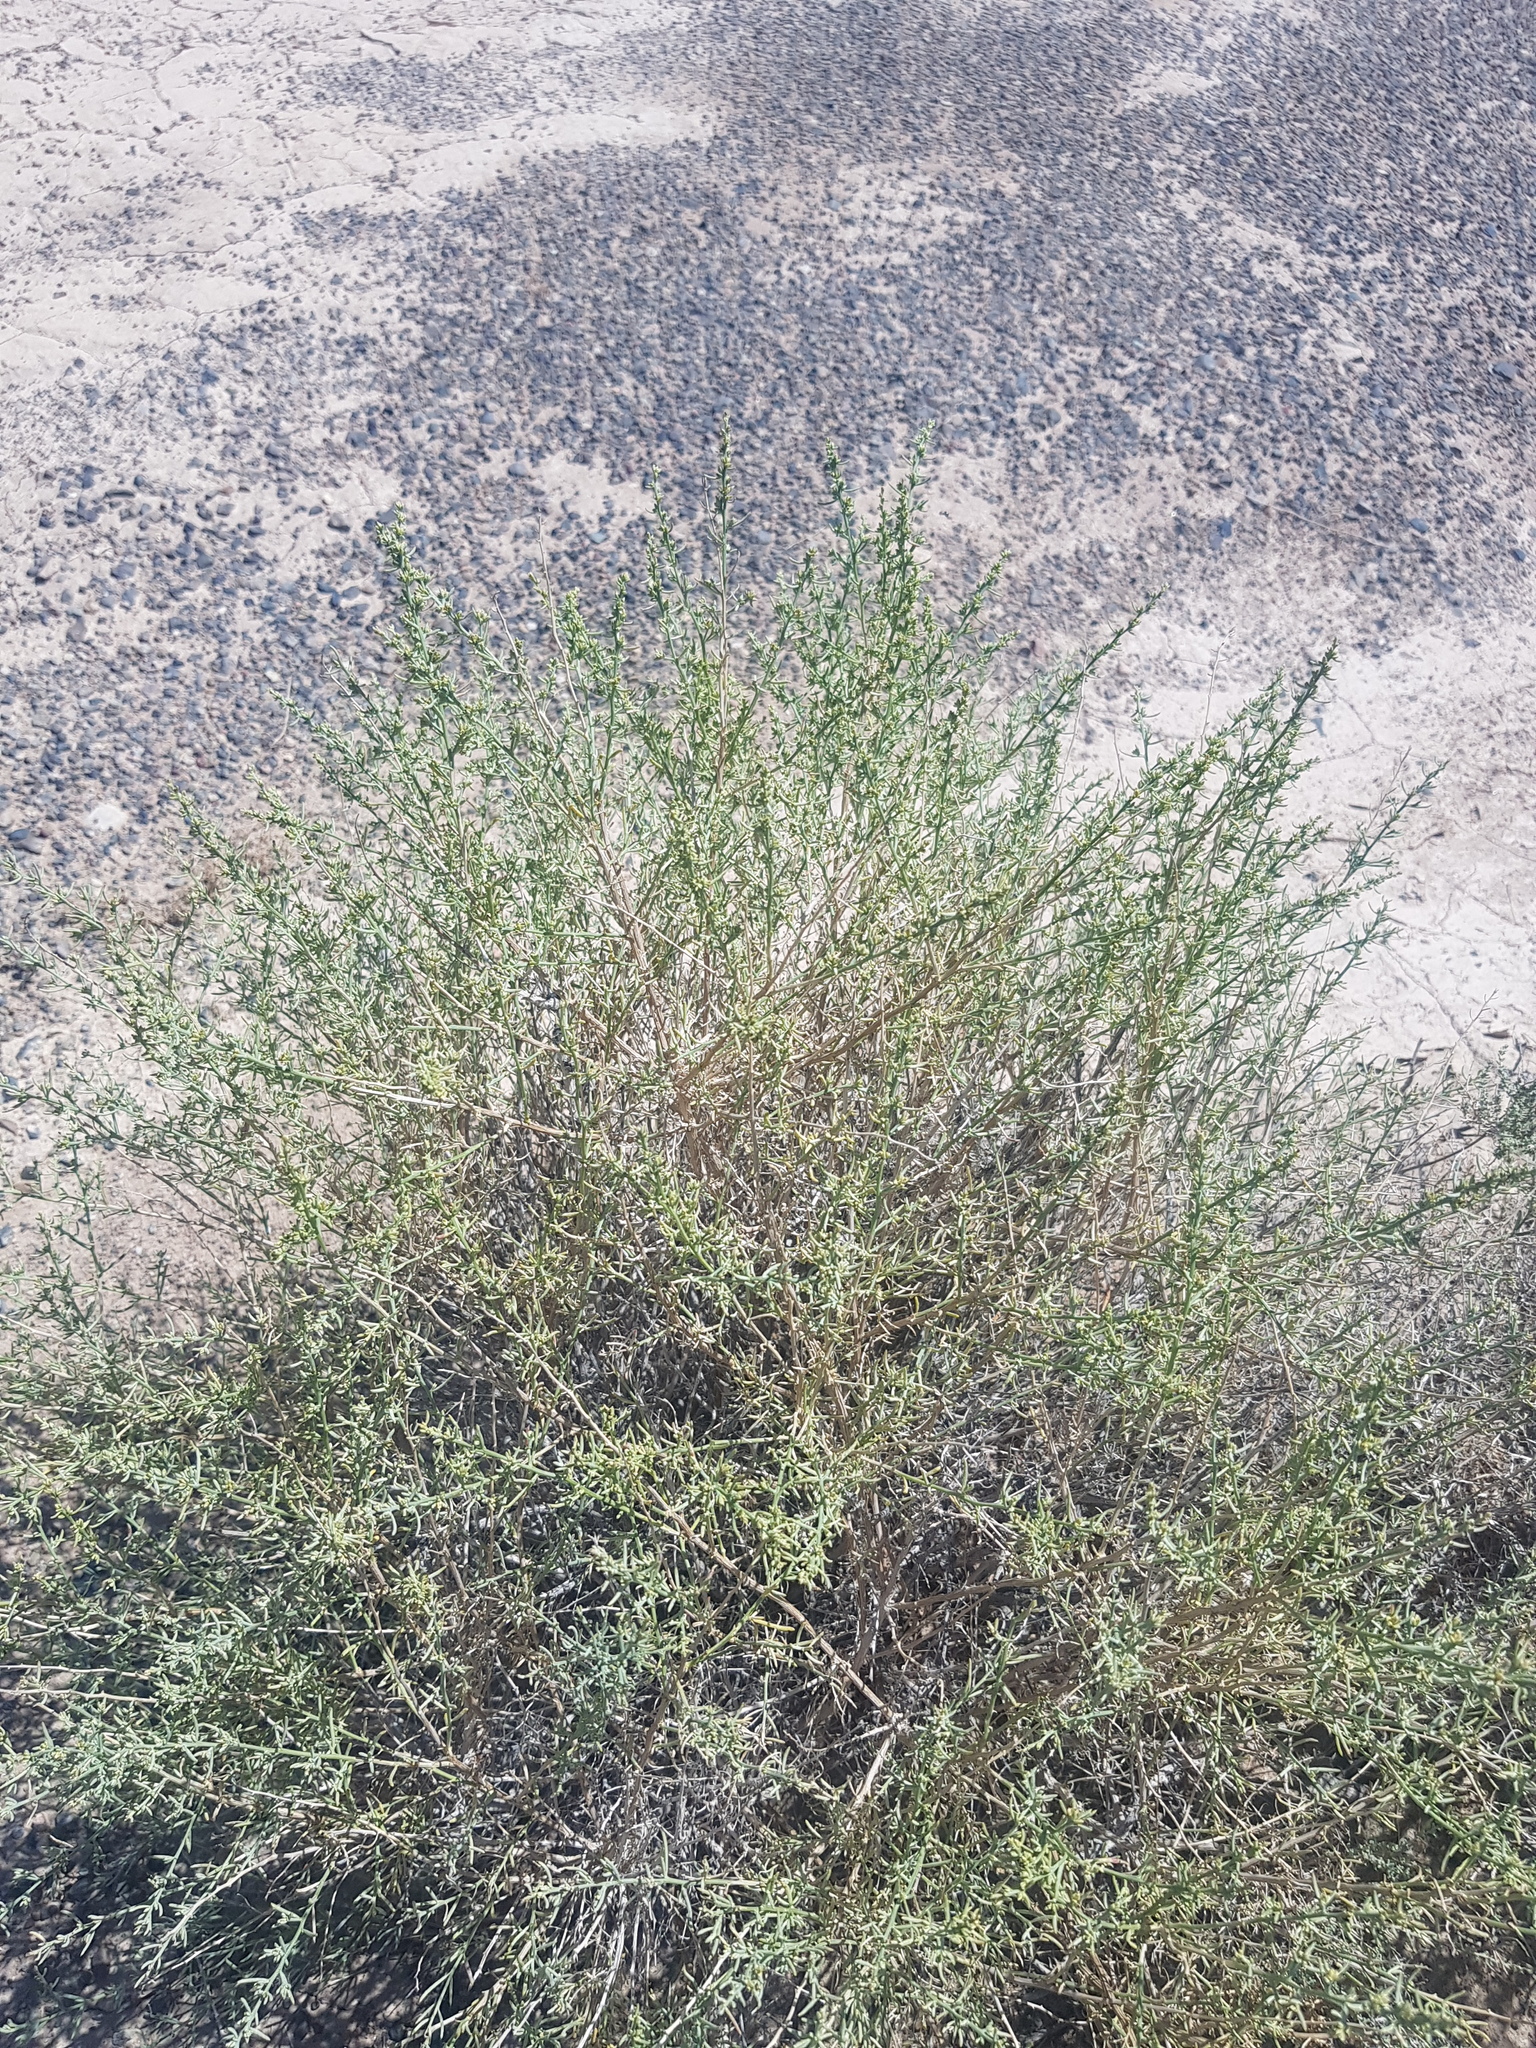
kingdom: Plantae
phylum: Tracheophyta
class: Magnoliopsida
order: Caryophyllales
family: Amaranthaceae
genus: Sympegma
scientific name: Sympegma regelii
